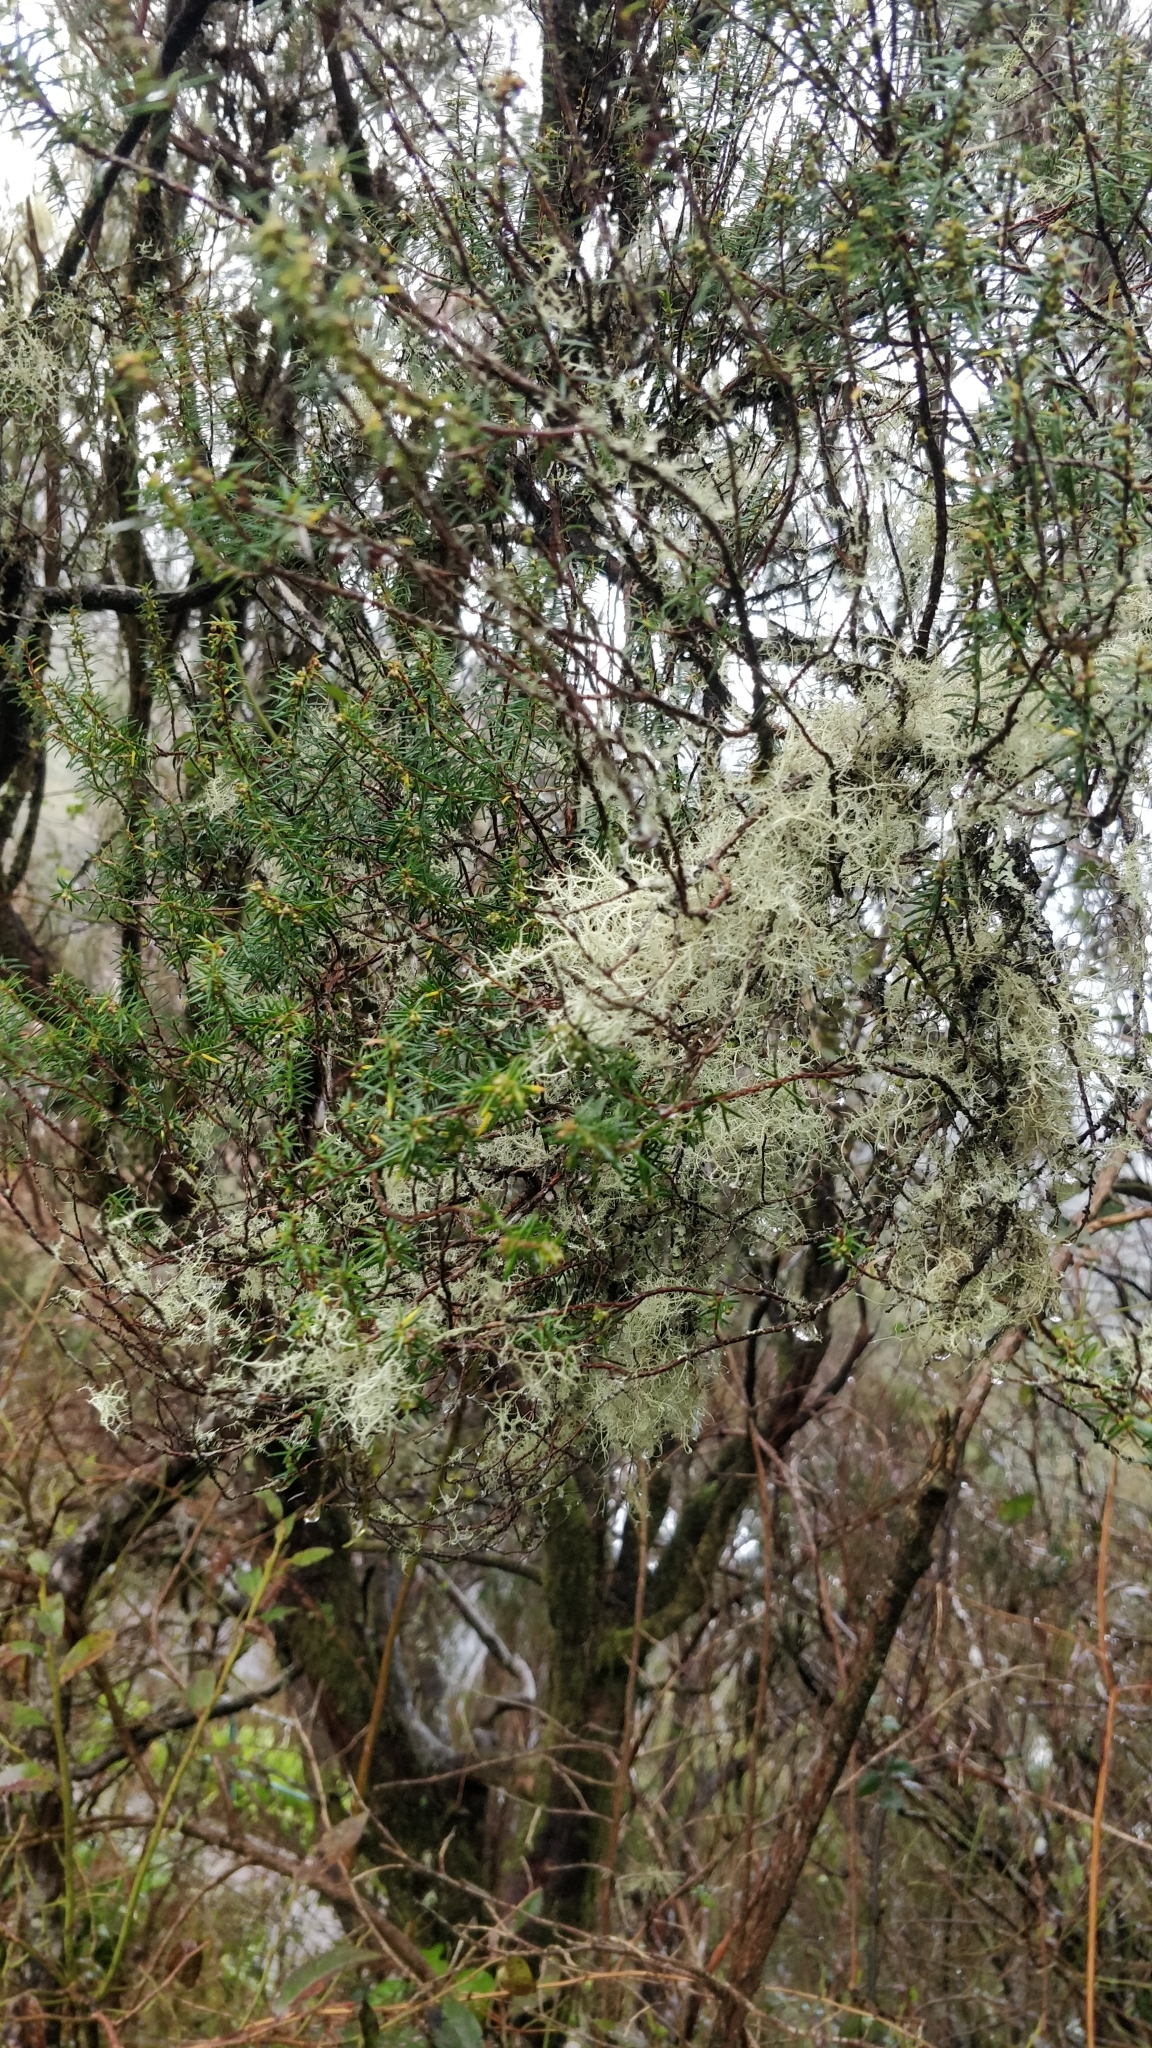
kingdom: Plantae
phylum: Tracheophyta
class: Magnoliopsida
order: Ericales
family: Ericaceae
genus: Erica
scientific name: Erica platycodon
